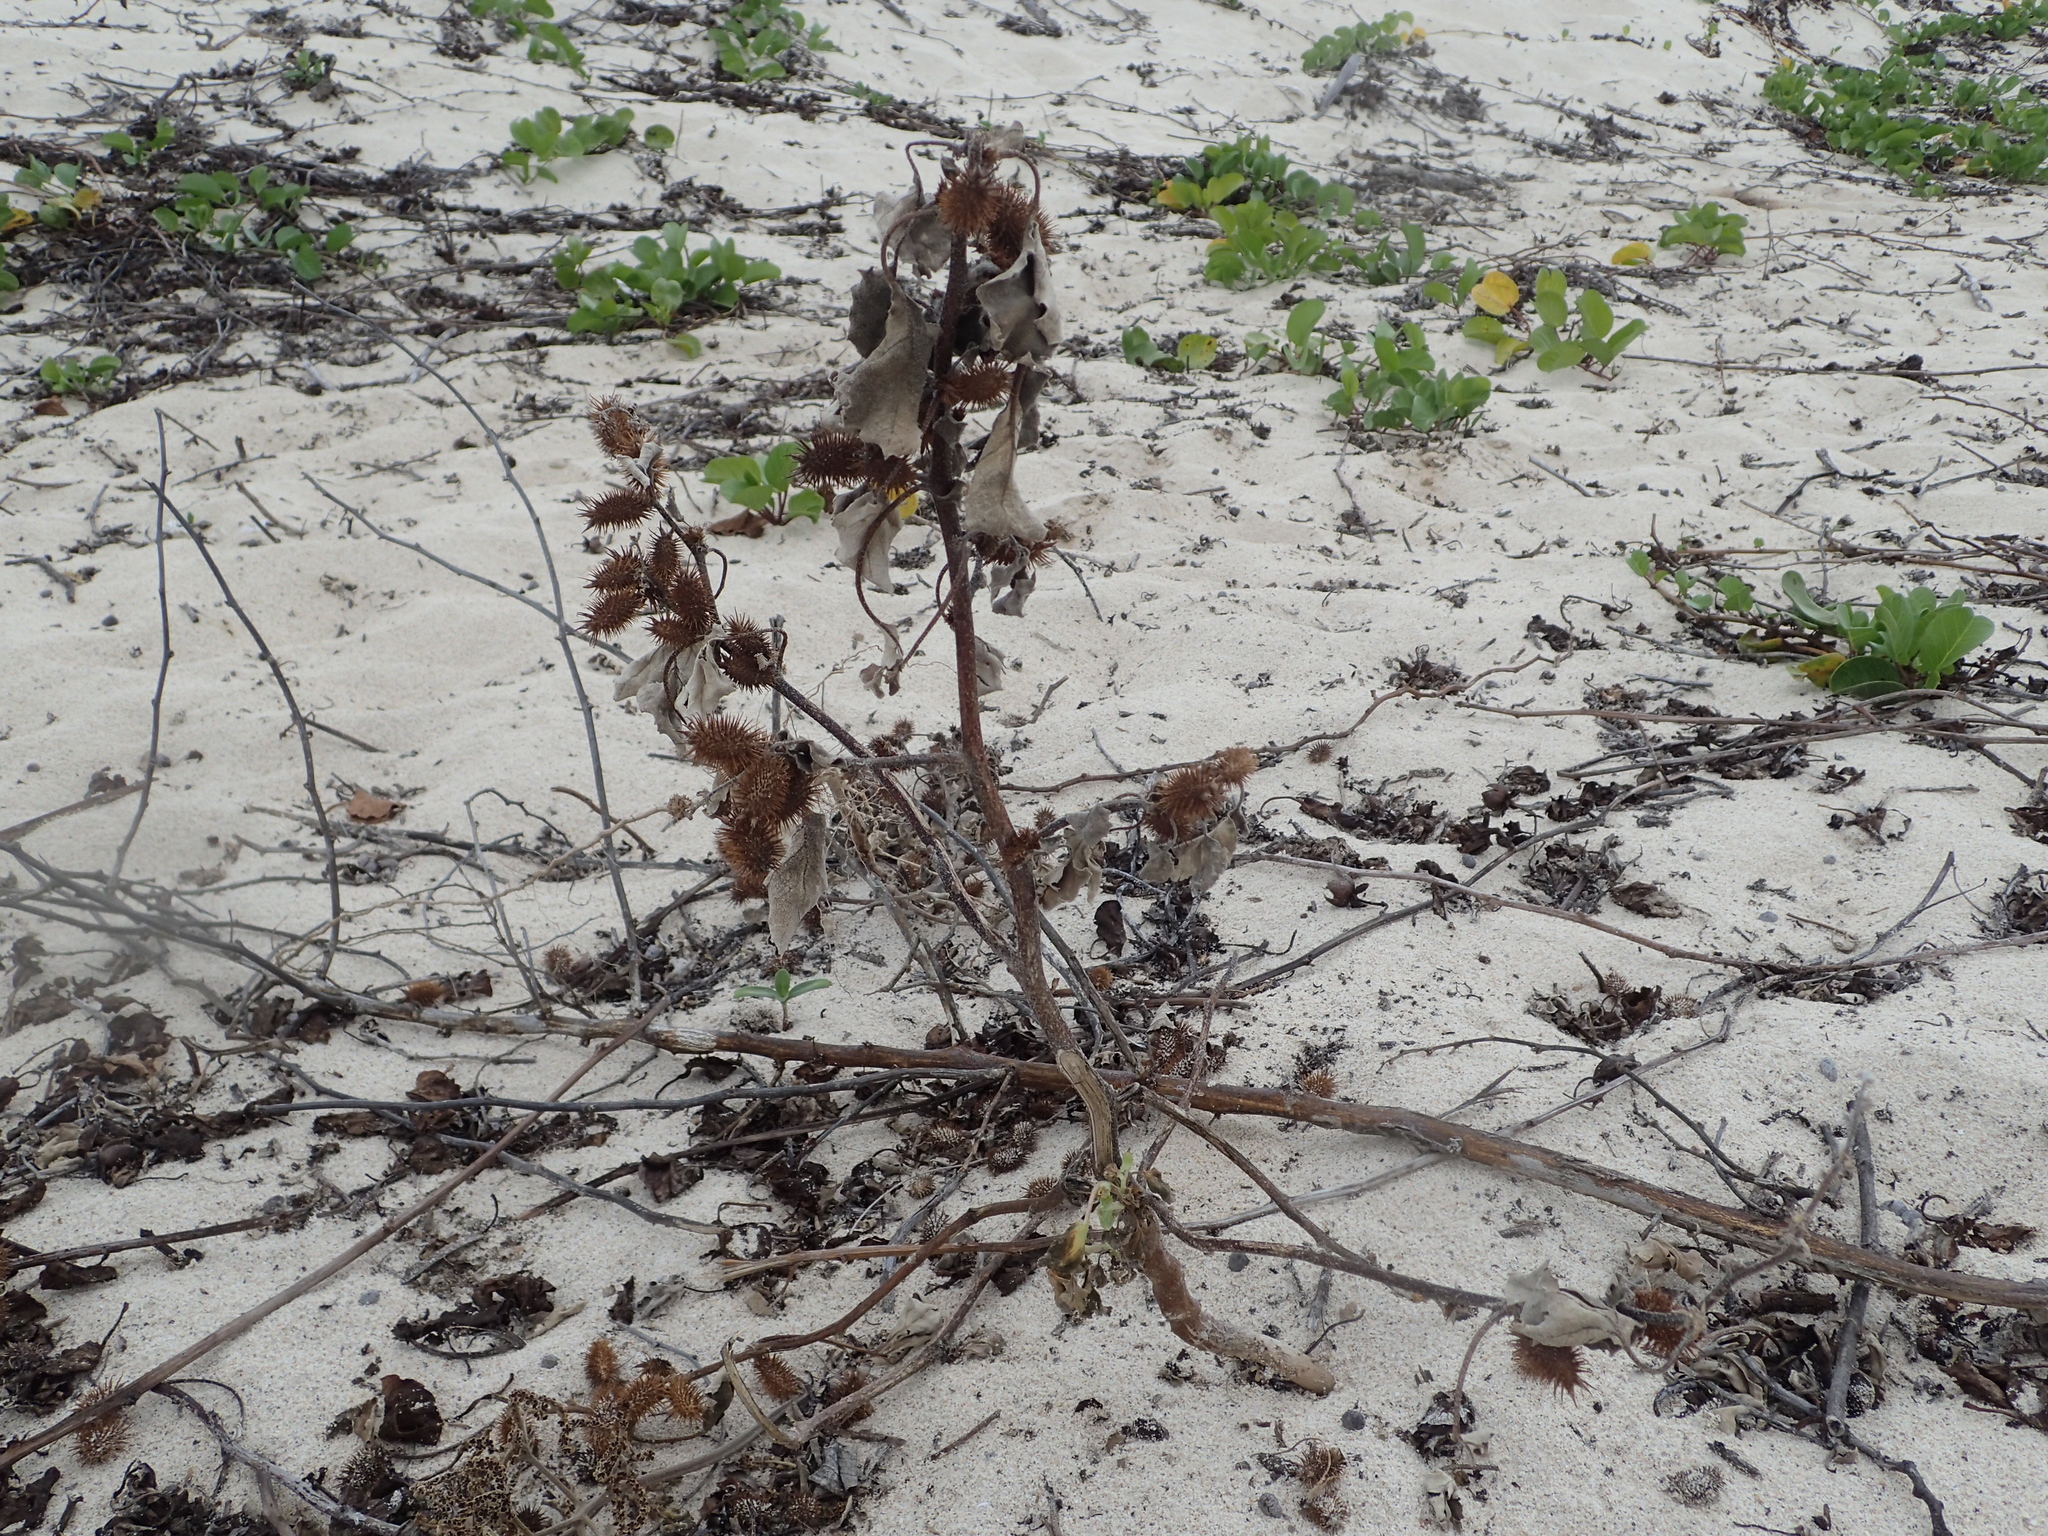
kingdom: Plantae
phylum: Tracheophyta
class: Magnoliopsida
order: Asterales
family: Asteraceae
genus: Xanthium
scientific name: Xanthium strumarium
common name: Rough cocklebur
